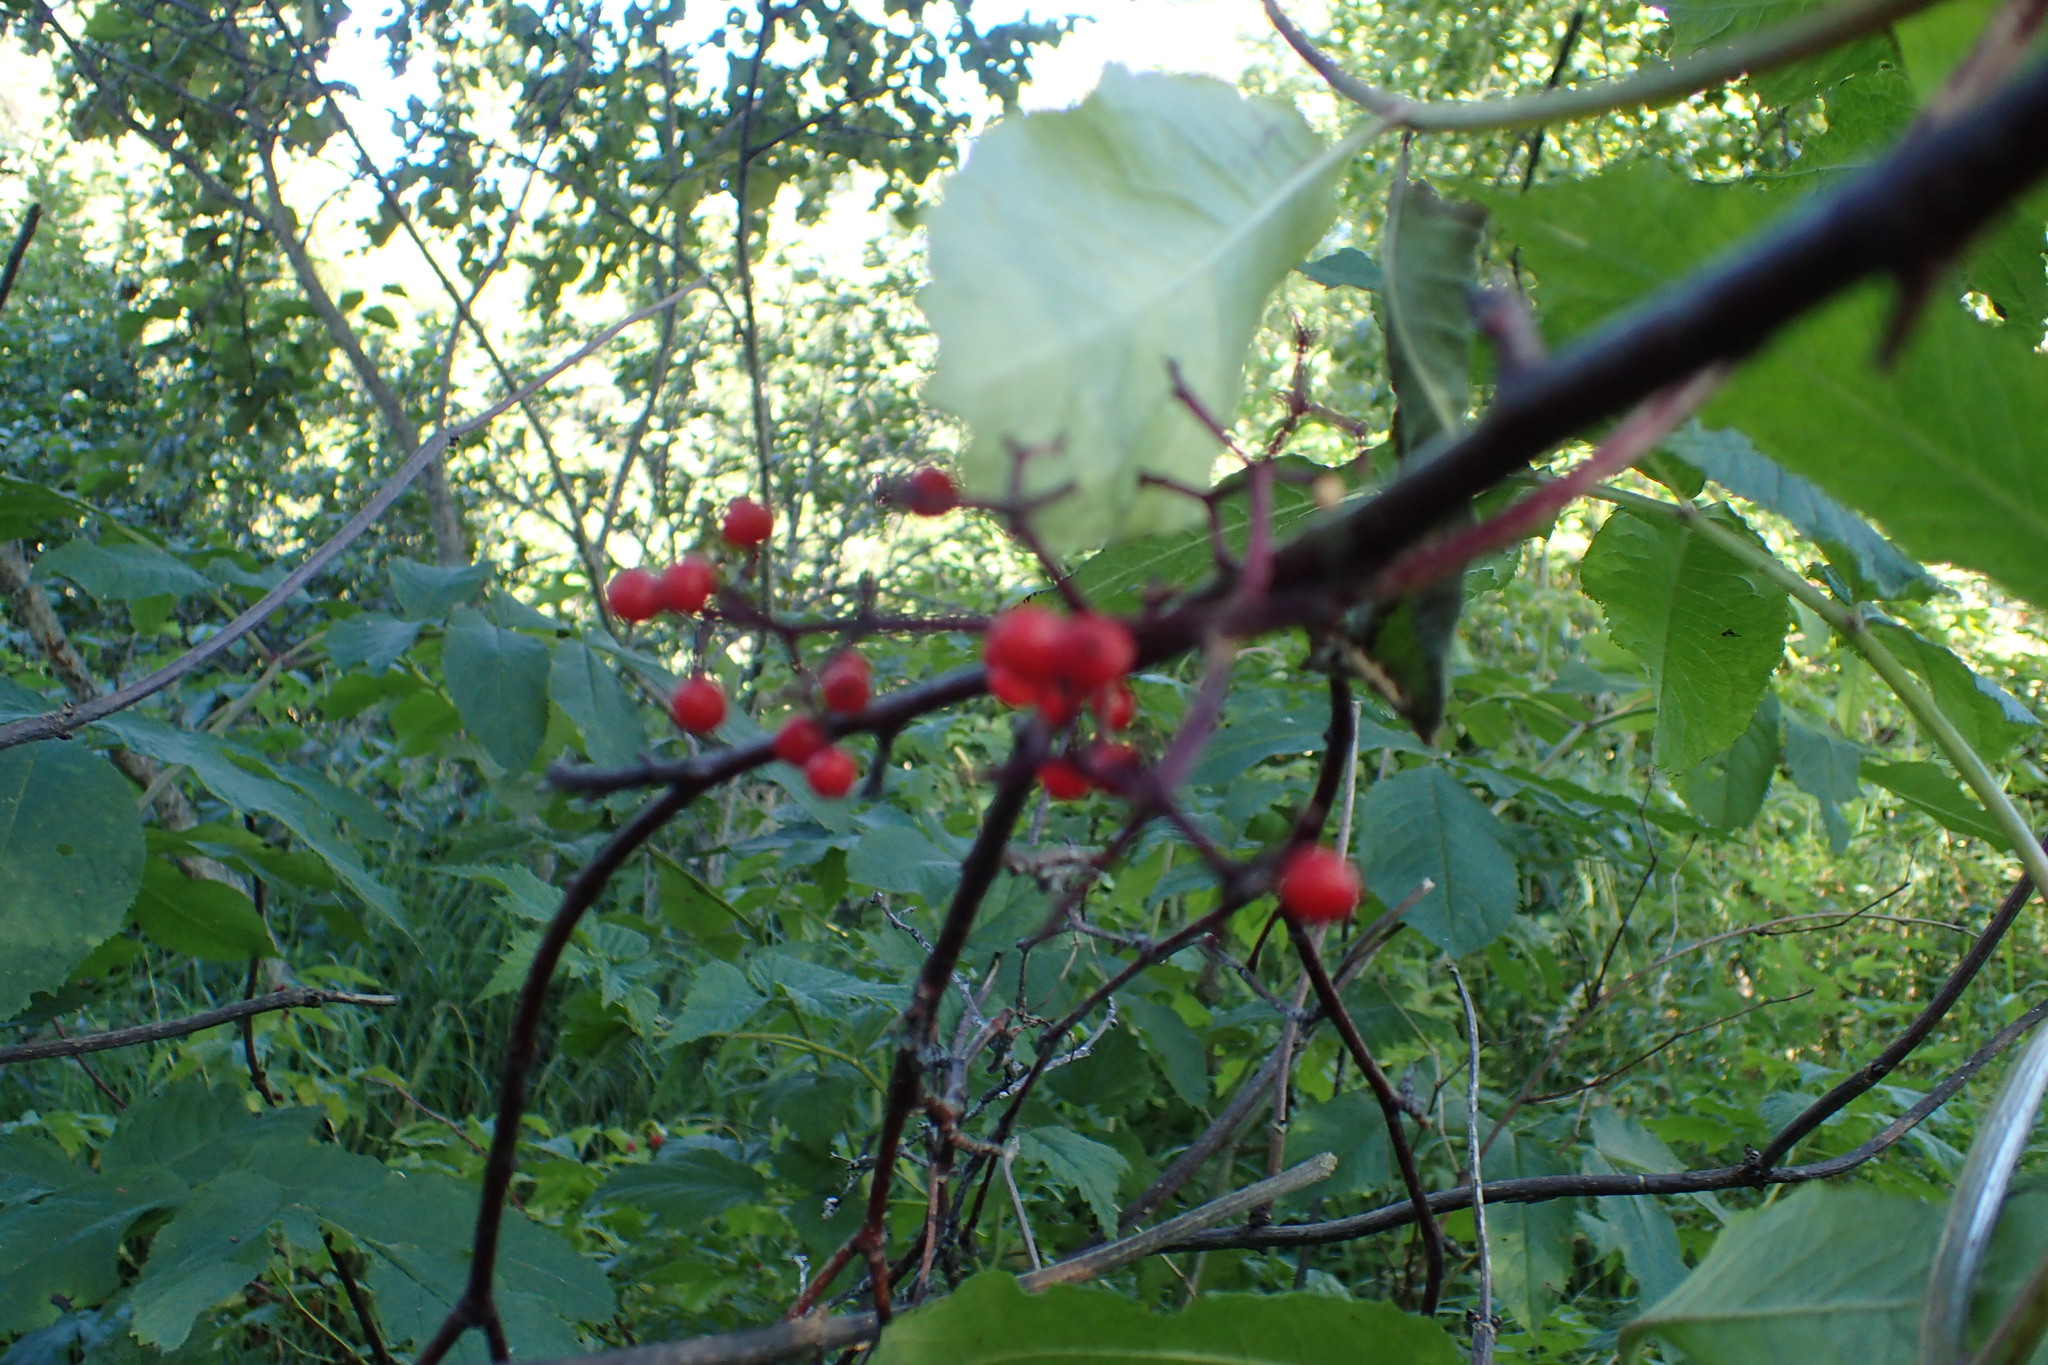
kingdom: Plantae
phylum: Tracheophyta
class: Magnoliopsida
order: Dipsacales
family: Viburnaceae
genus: Sambucus
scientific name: Sambucus racemosa
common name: Red-berried elder
